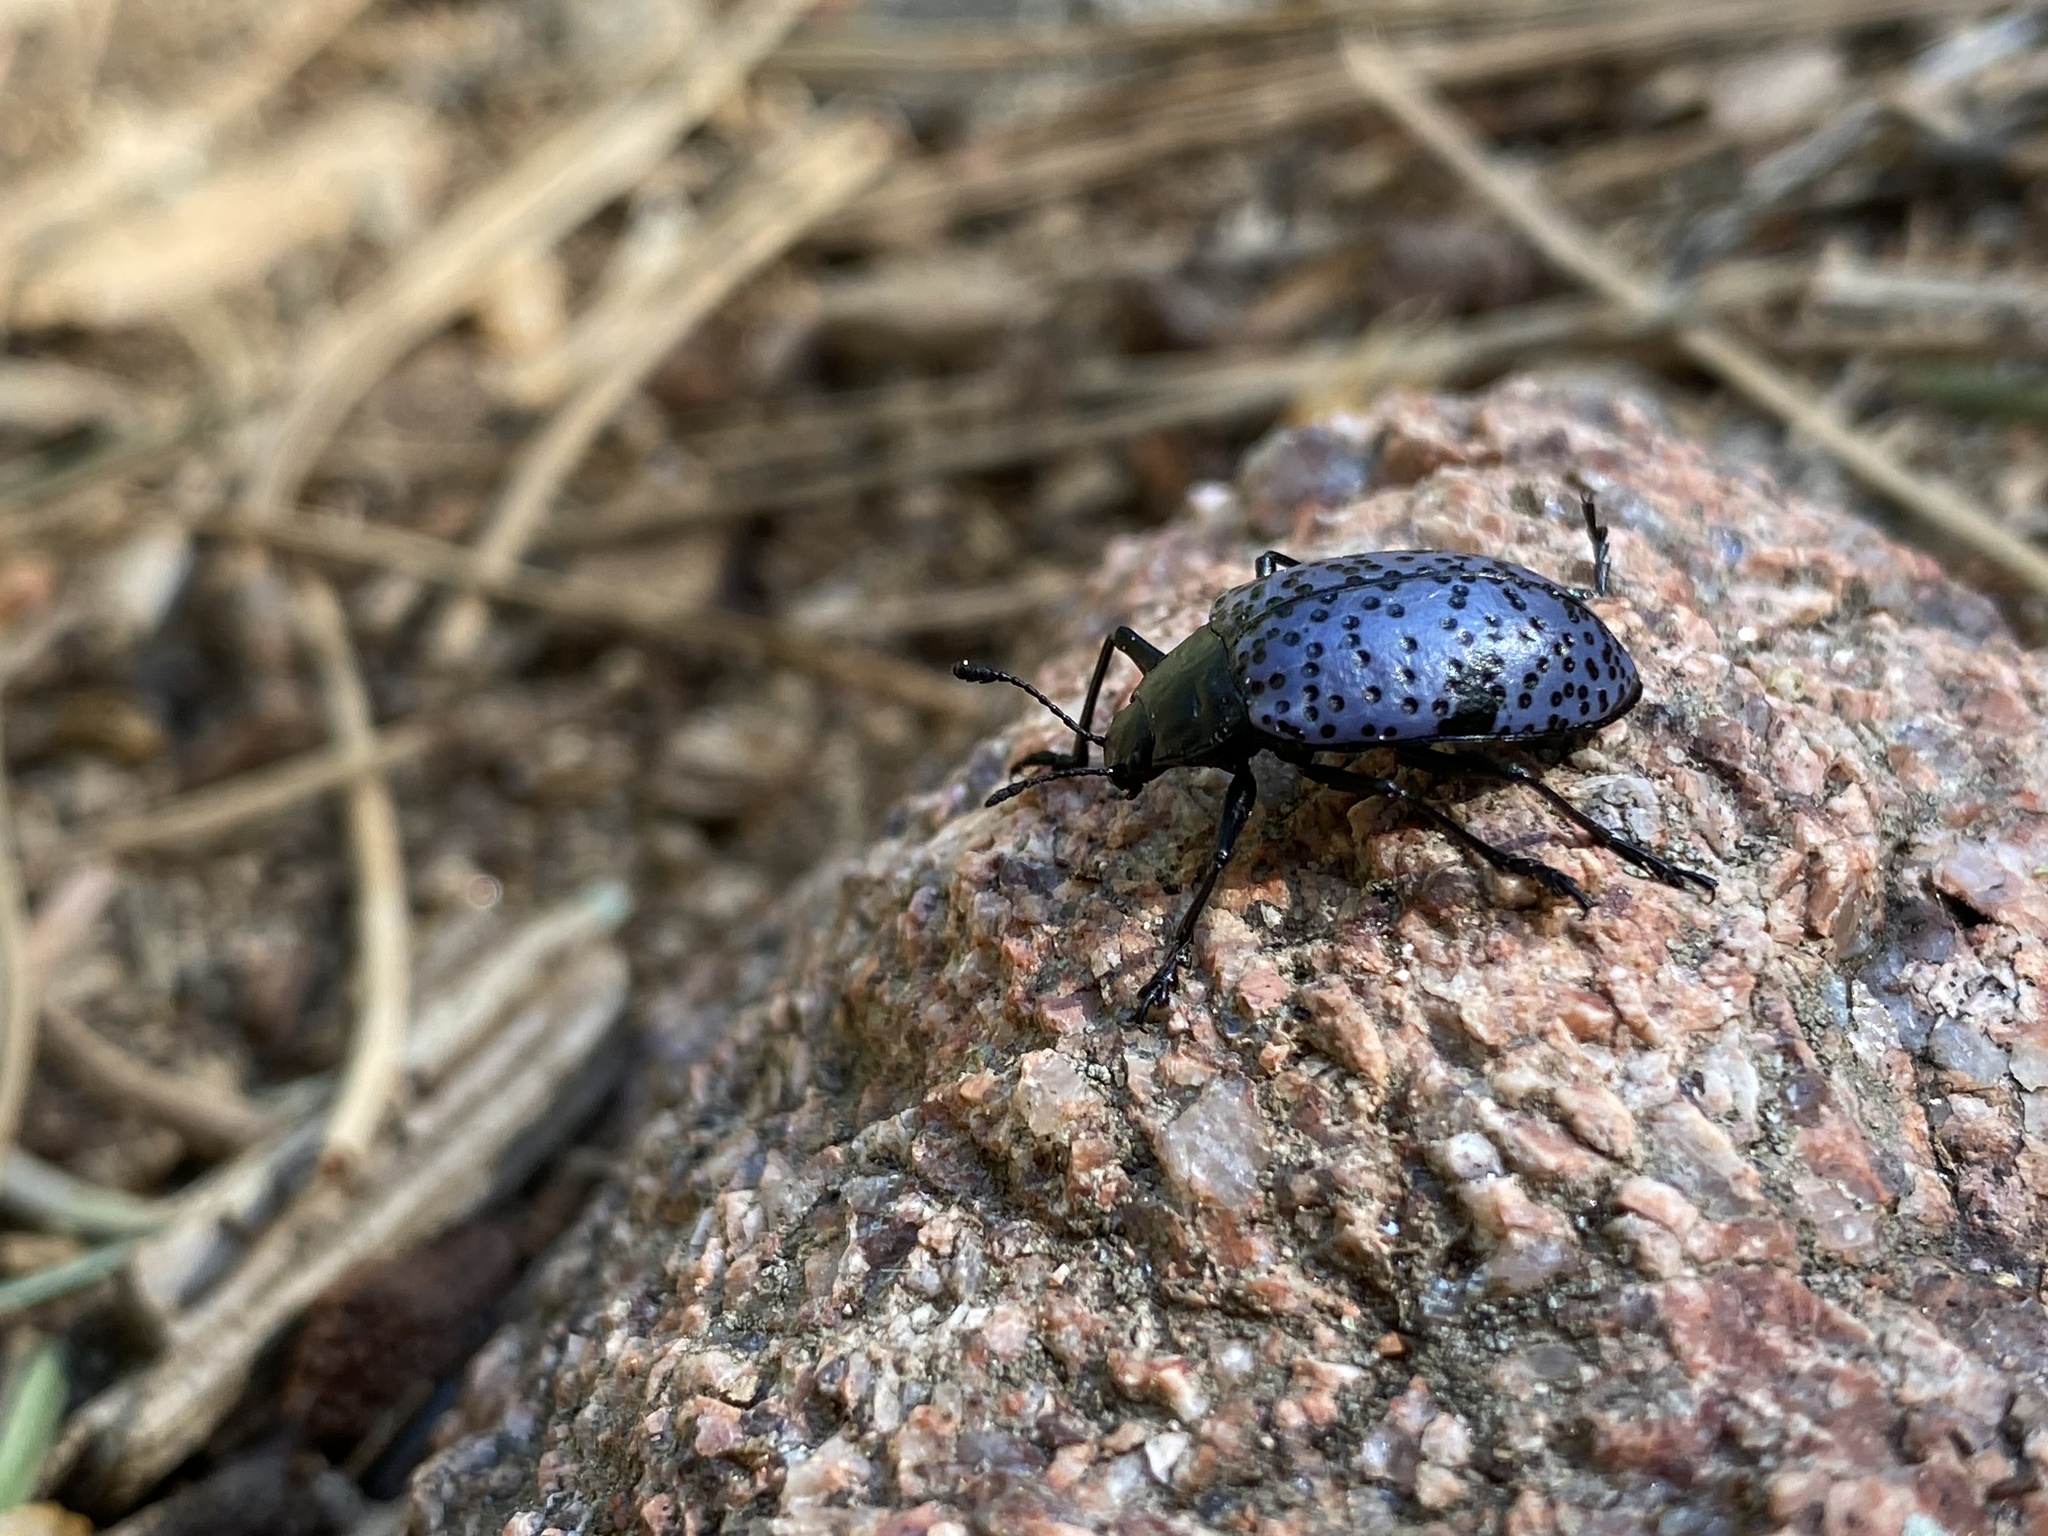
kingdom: Animalia
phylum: Arthropoda
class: Insecta
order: Coleoptera
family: Erotylidae
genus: Gibbifer
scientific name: Gibbifer californicus
